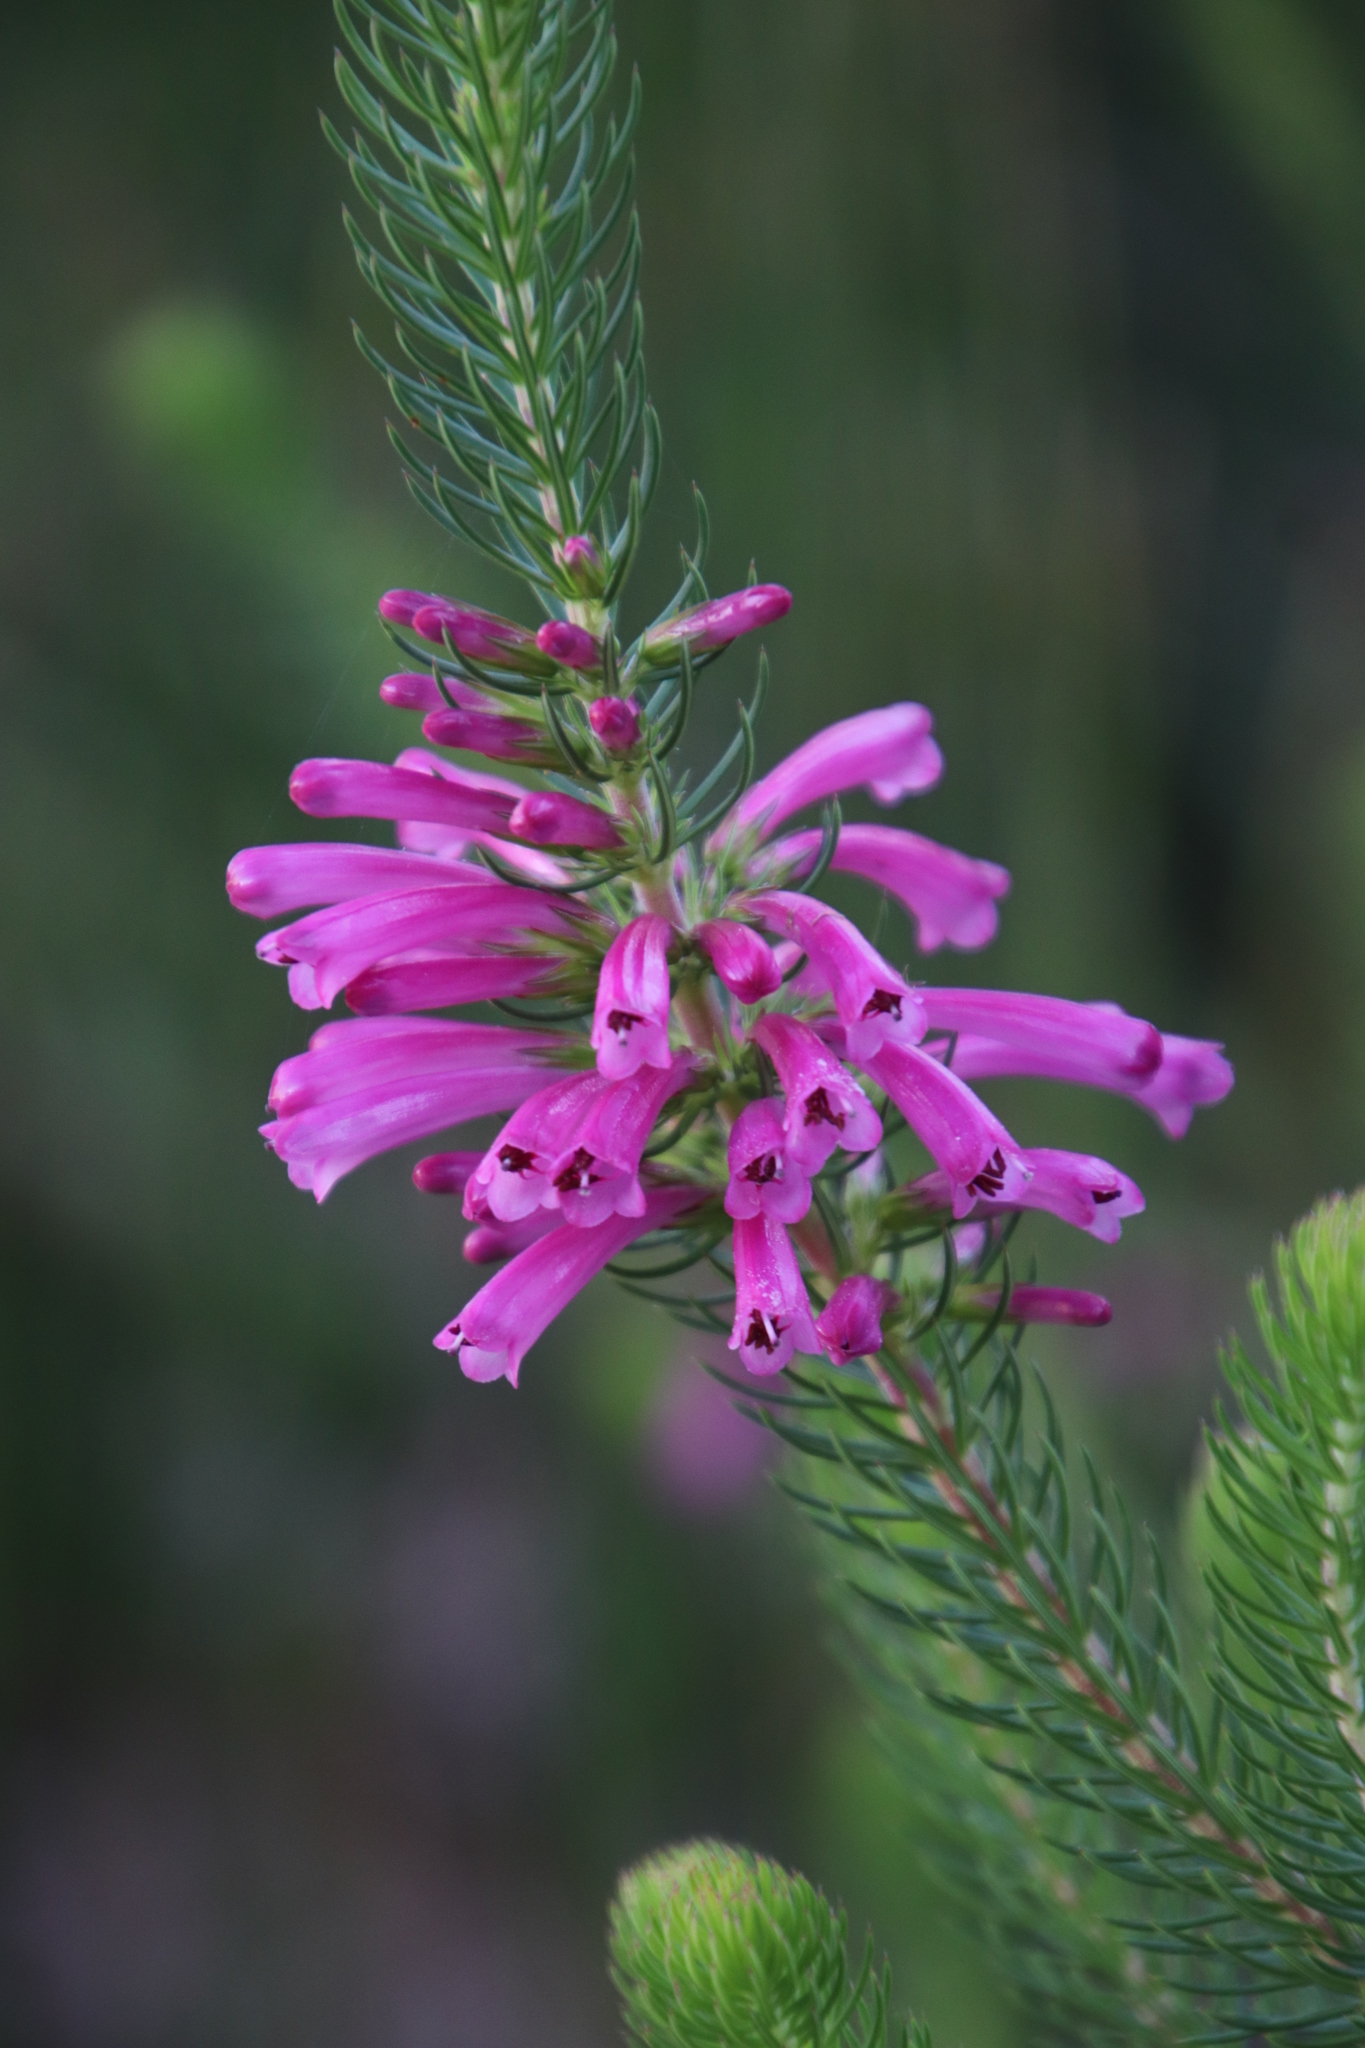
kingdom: Plantae
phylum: Tracheophyta
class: Magnoliopsida
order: Ericales
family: Ericaceae
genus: Erica
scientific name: Erica abietina
